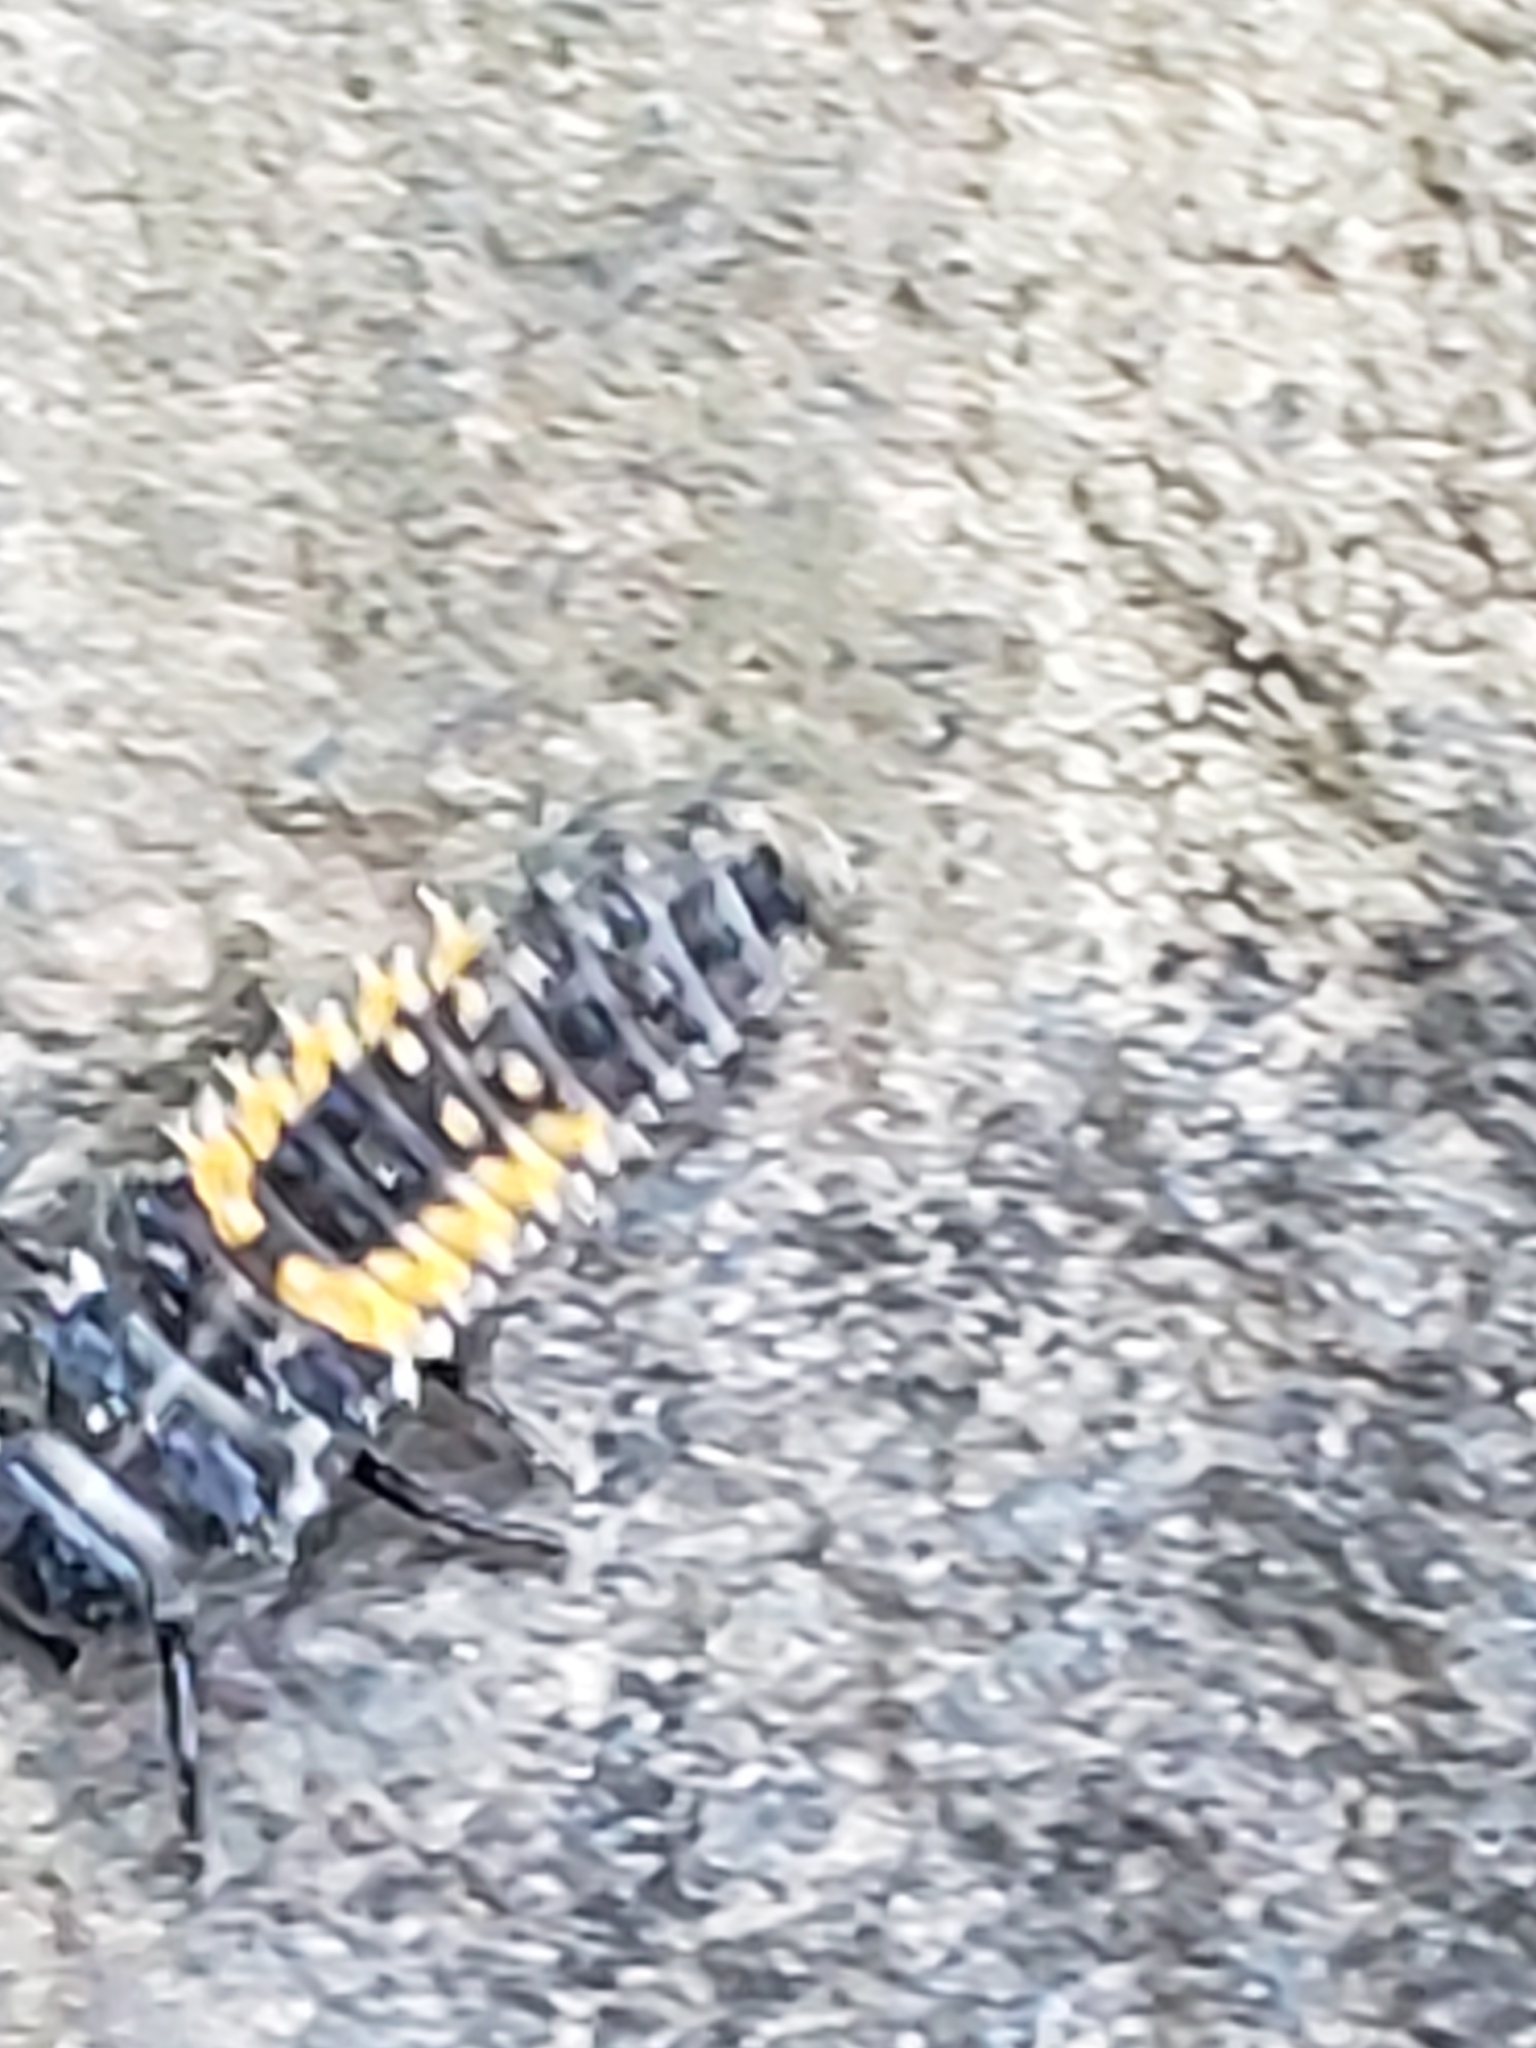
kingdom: Animalia
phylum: Arthropoda
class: Insecta
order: Coleoptera
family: Coccinellidae
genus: Harmonia
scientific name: Harmonia axyridis
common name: Harlequin ladybird
